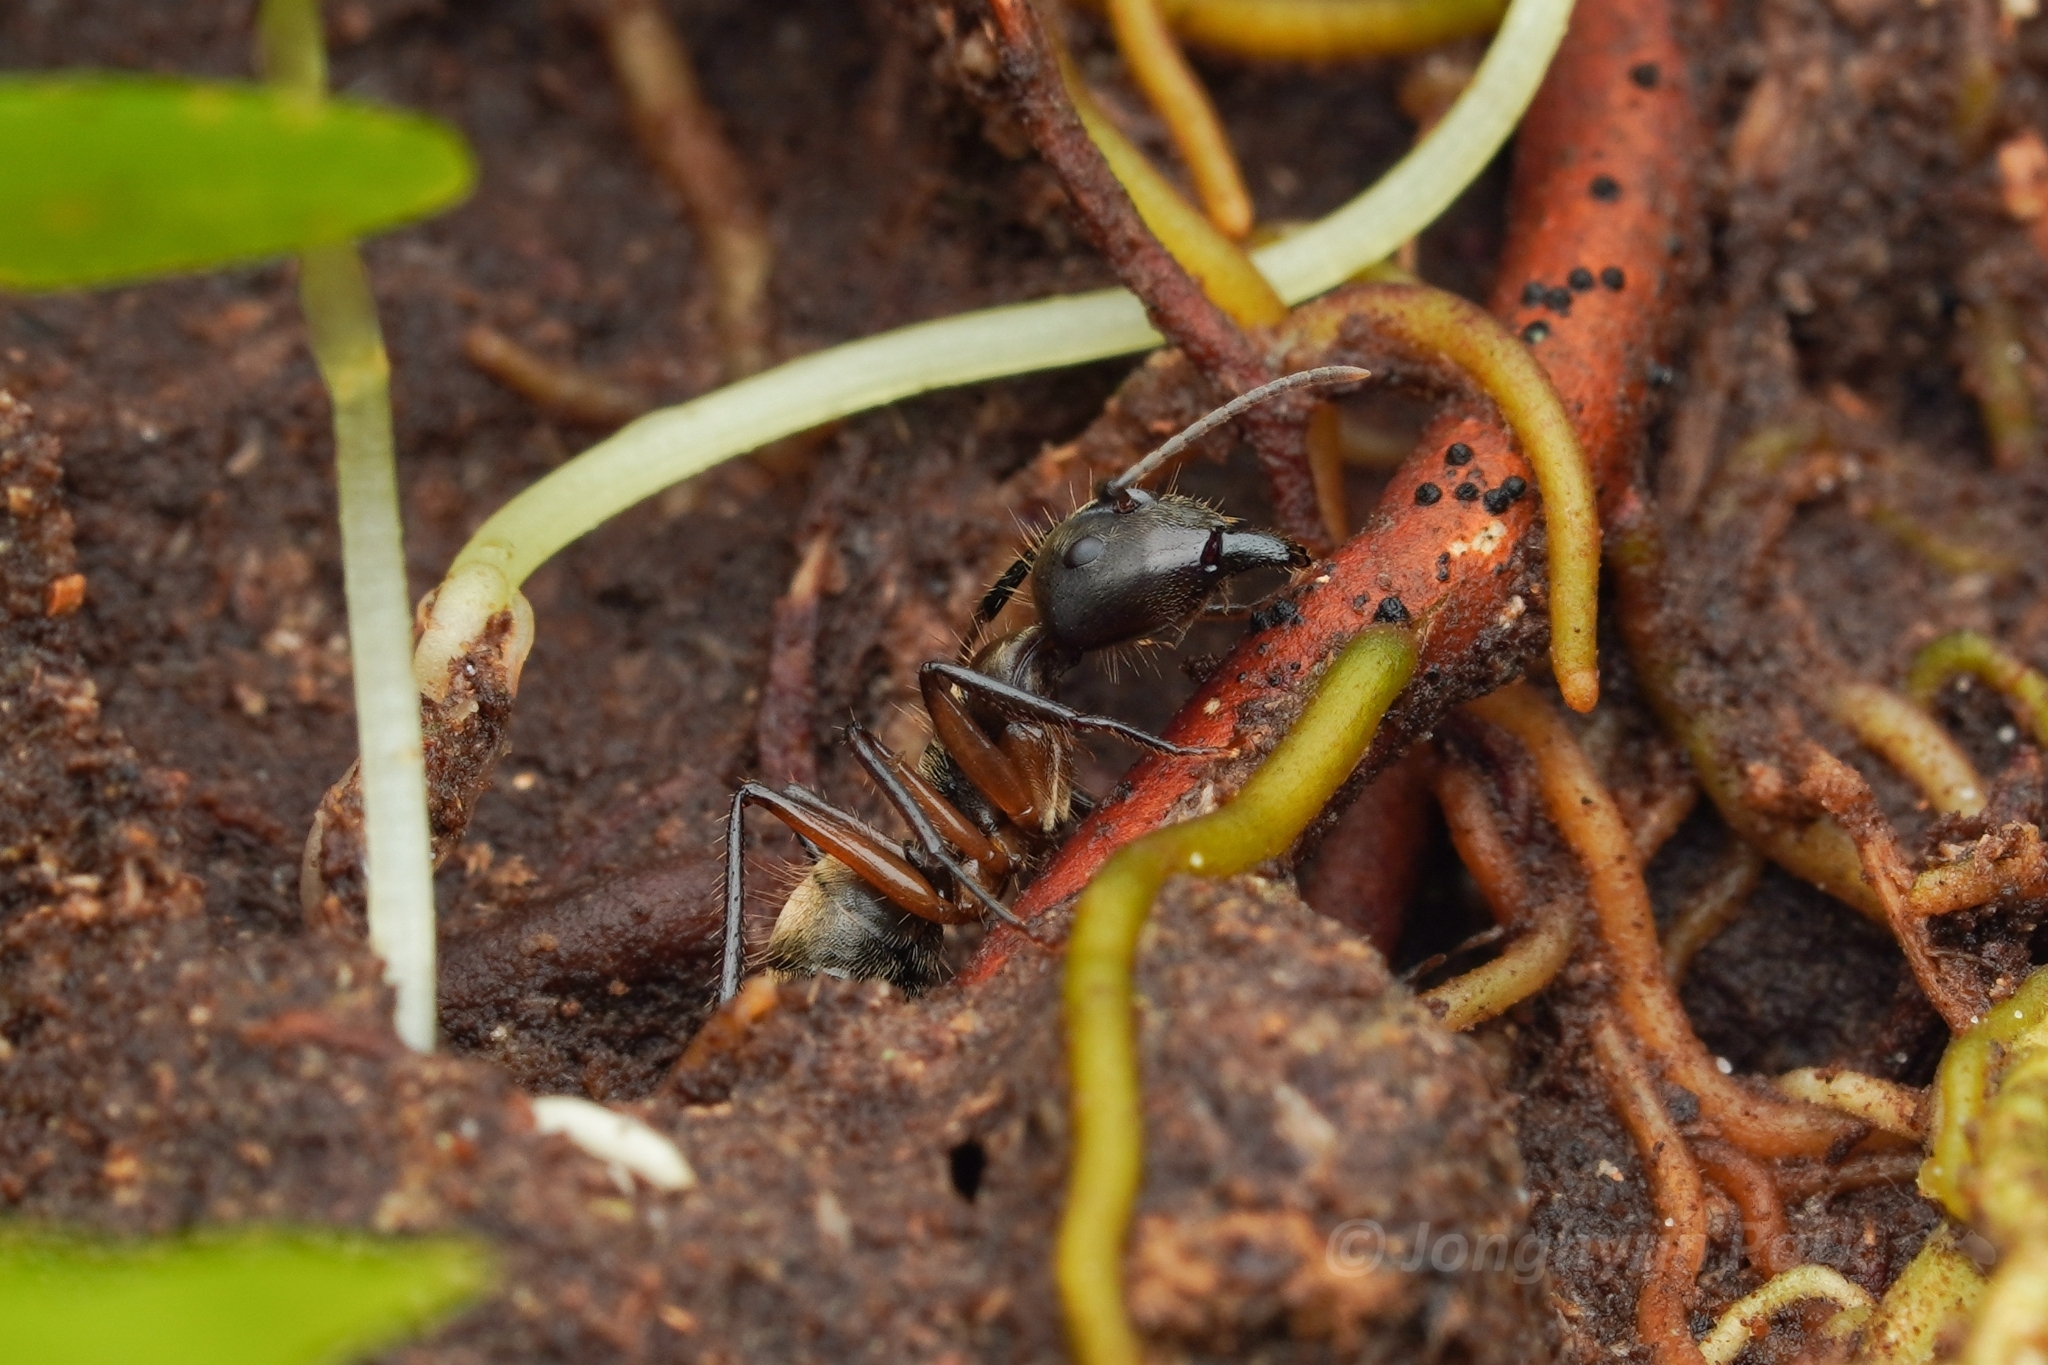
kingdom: Animalia
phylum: Arthropoda
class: Insecta
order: Hymenoptera
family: Formicidae
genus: Camponotus
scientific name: Camponotus femoratus
